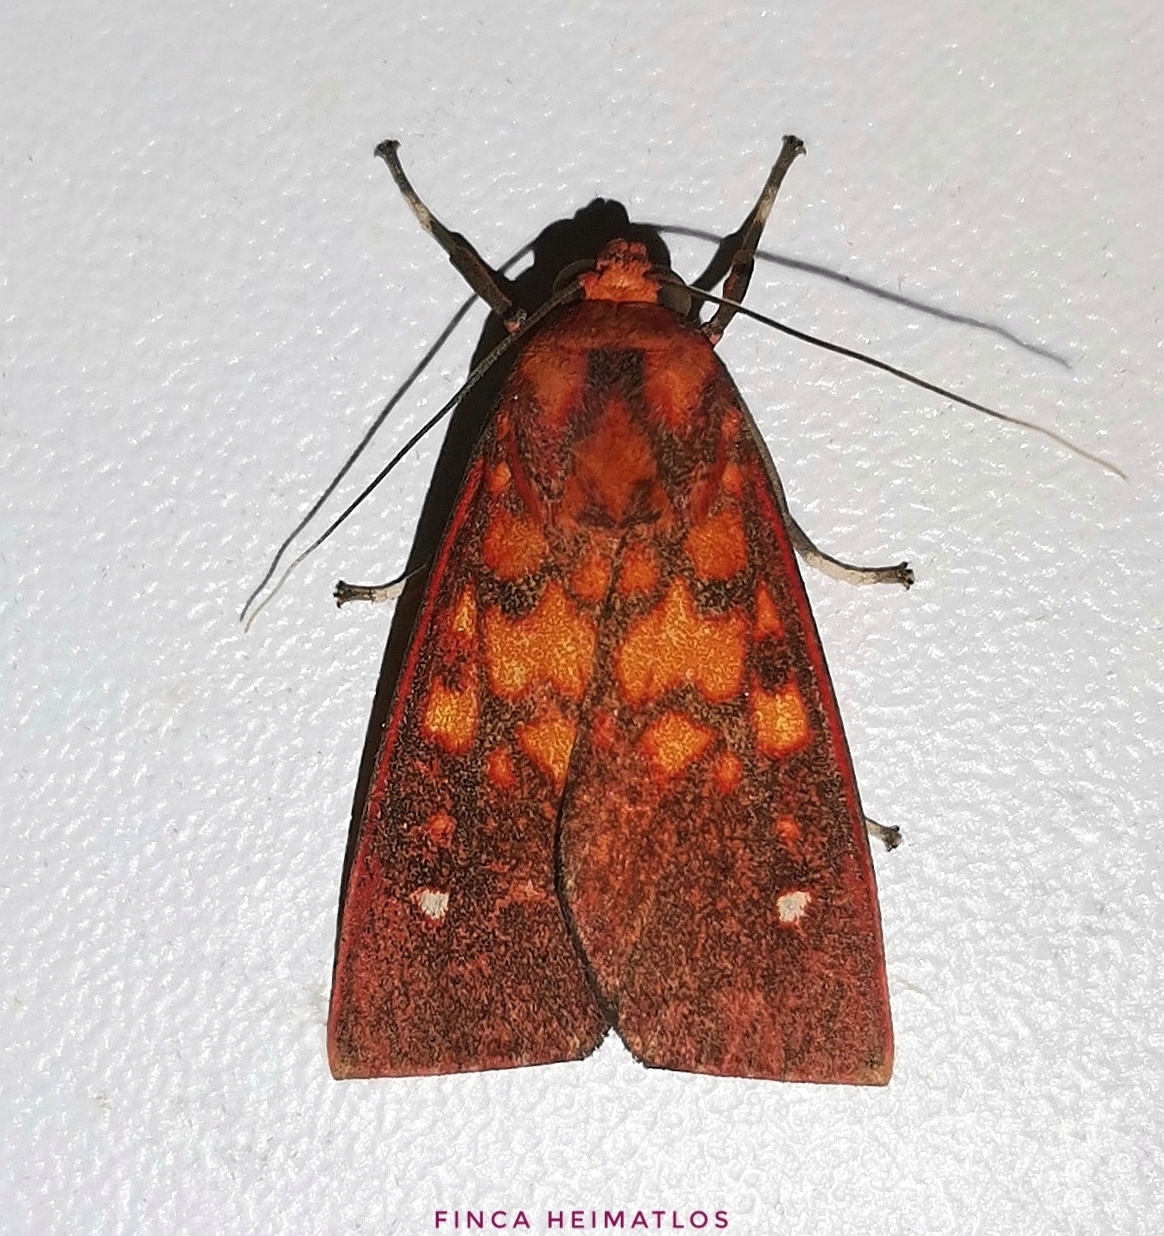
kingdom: Animalia
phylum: Arthropoda
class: Insecta
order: Lepidoptera
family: Erebidae
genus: Melese
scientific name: Melese punctata
